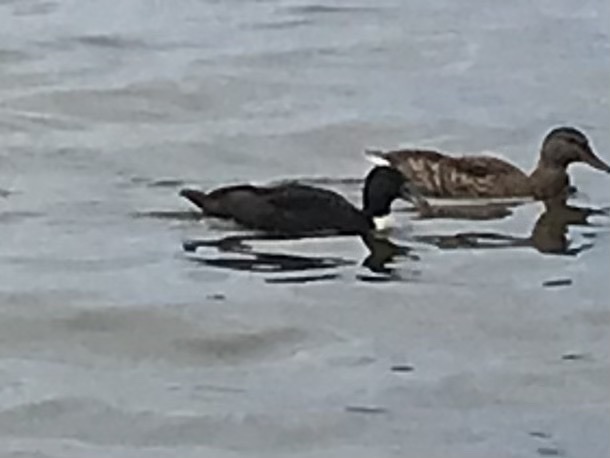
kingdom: Animalia
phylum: Chordata
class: Aves
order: Anseriformes
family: Anatidae
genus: Anas
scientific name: Anas platyrhynchos
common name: Mallard
